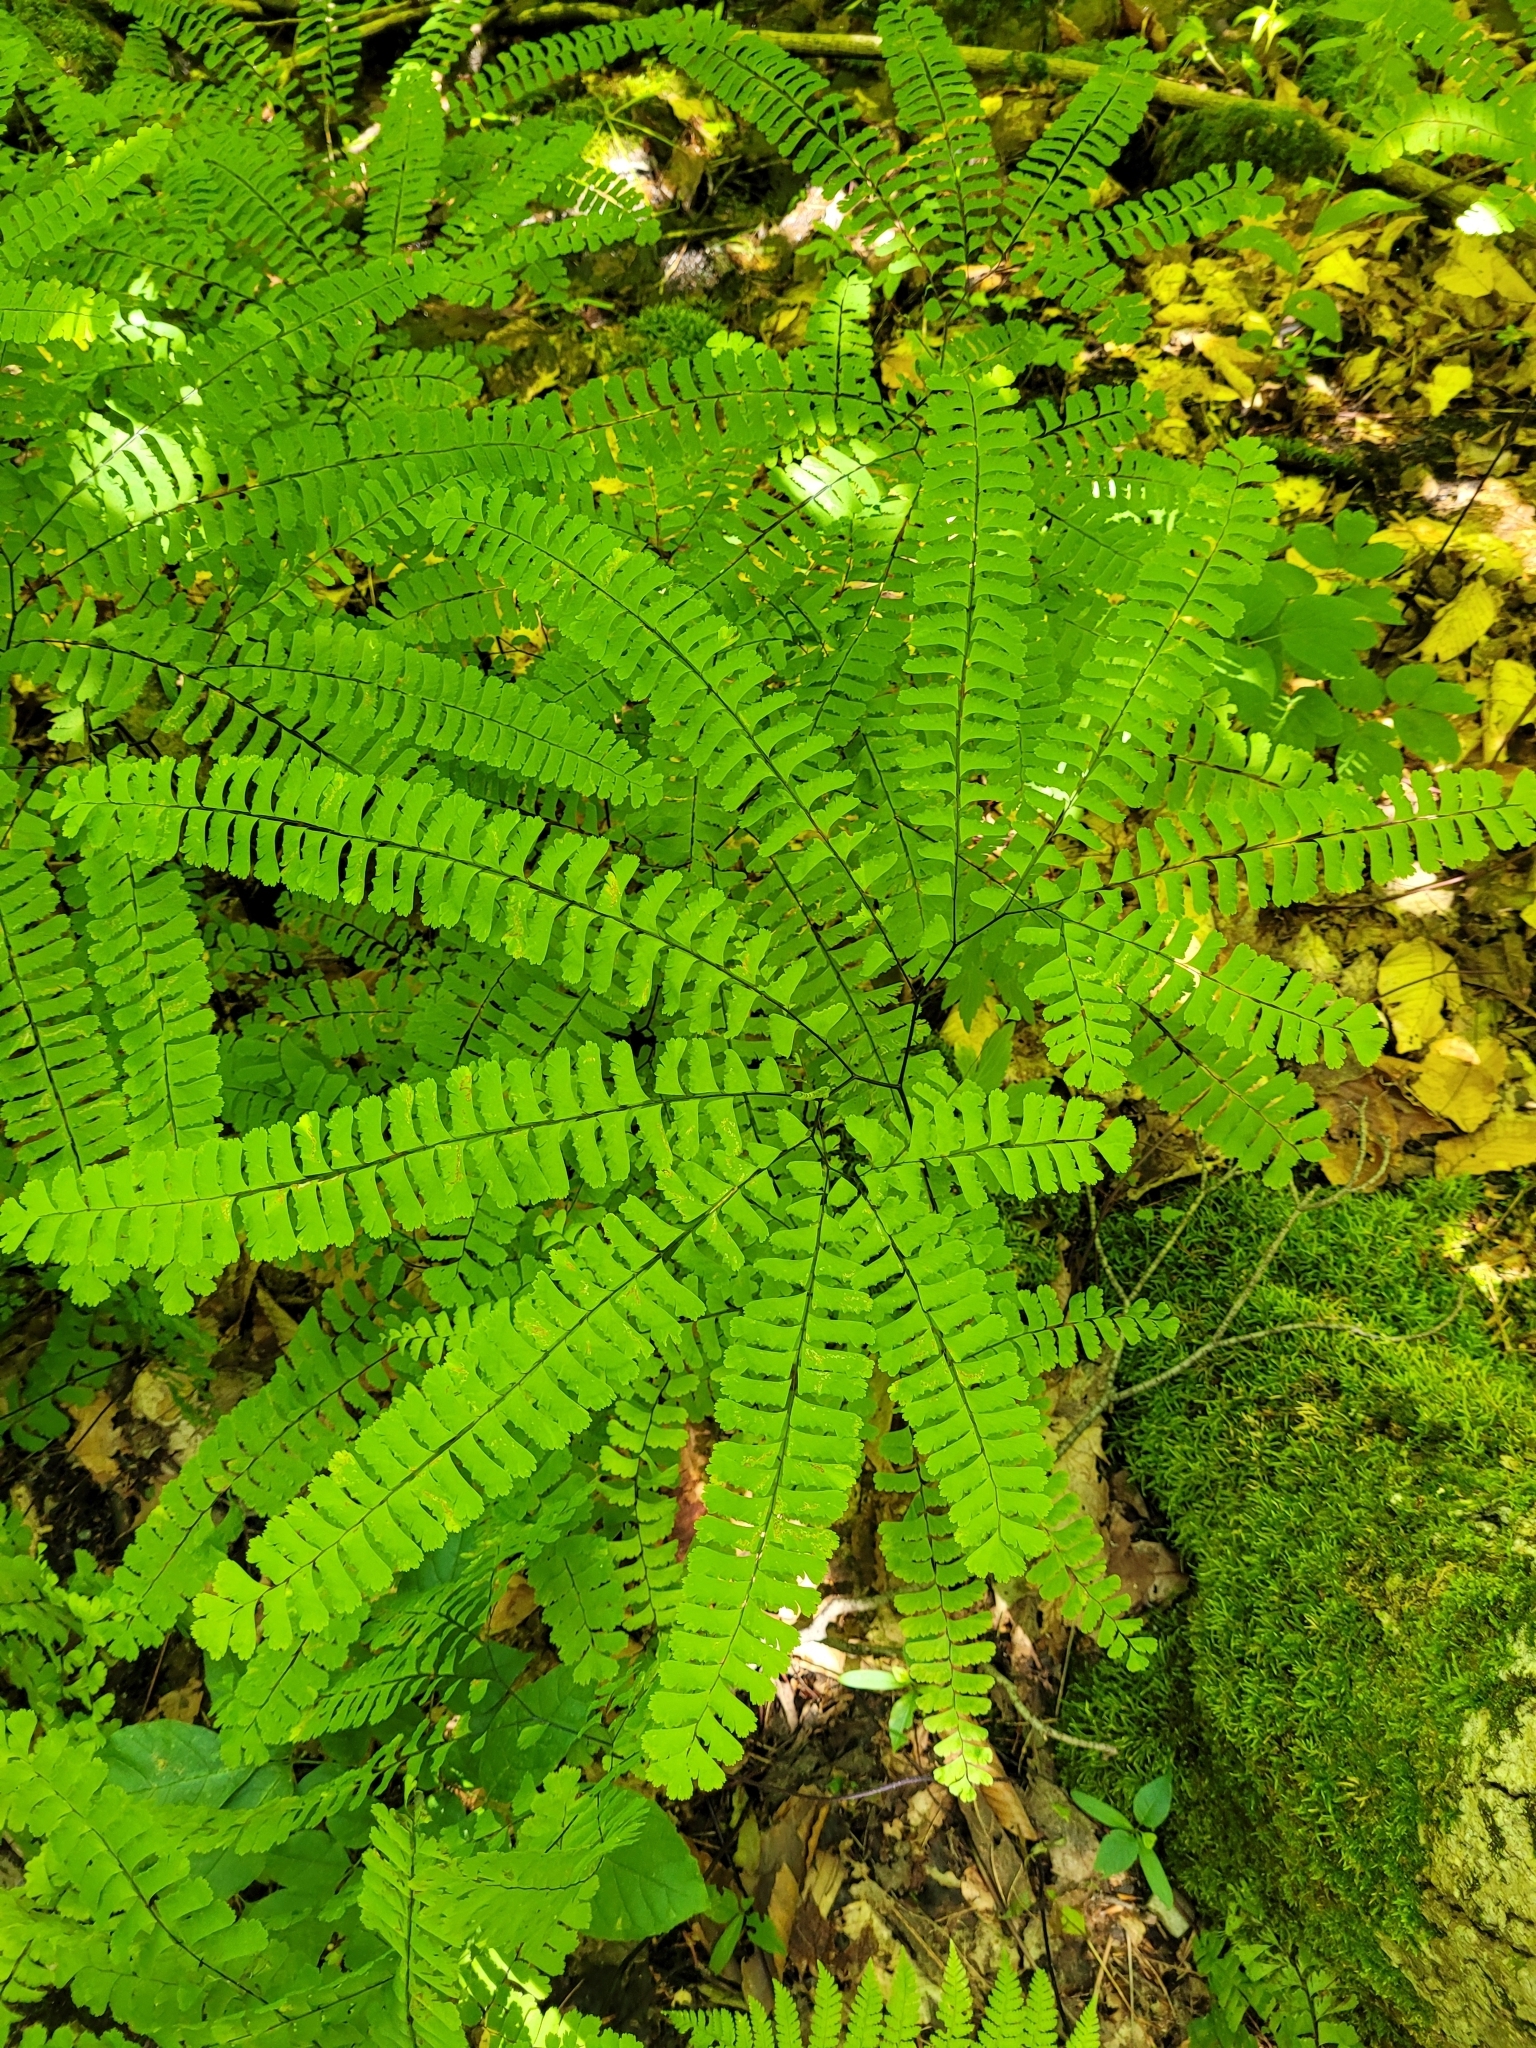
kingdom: Plantae
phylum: Tracheophyta
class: Polypodiopsida
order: Polypodiales
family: Pteridaceae
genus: Adiantum
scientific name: Adiantum pedatum
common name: Five-finger fern
